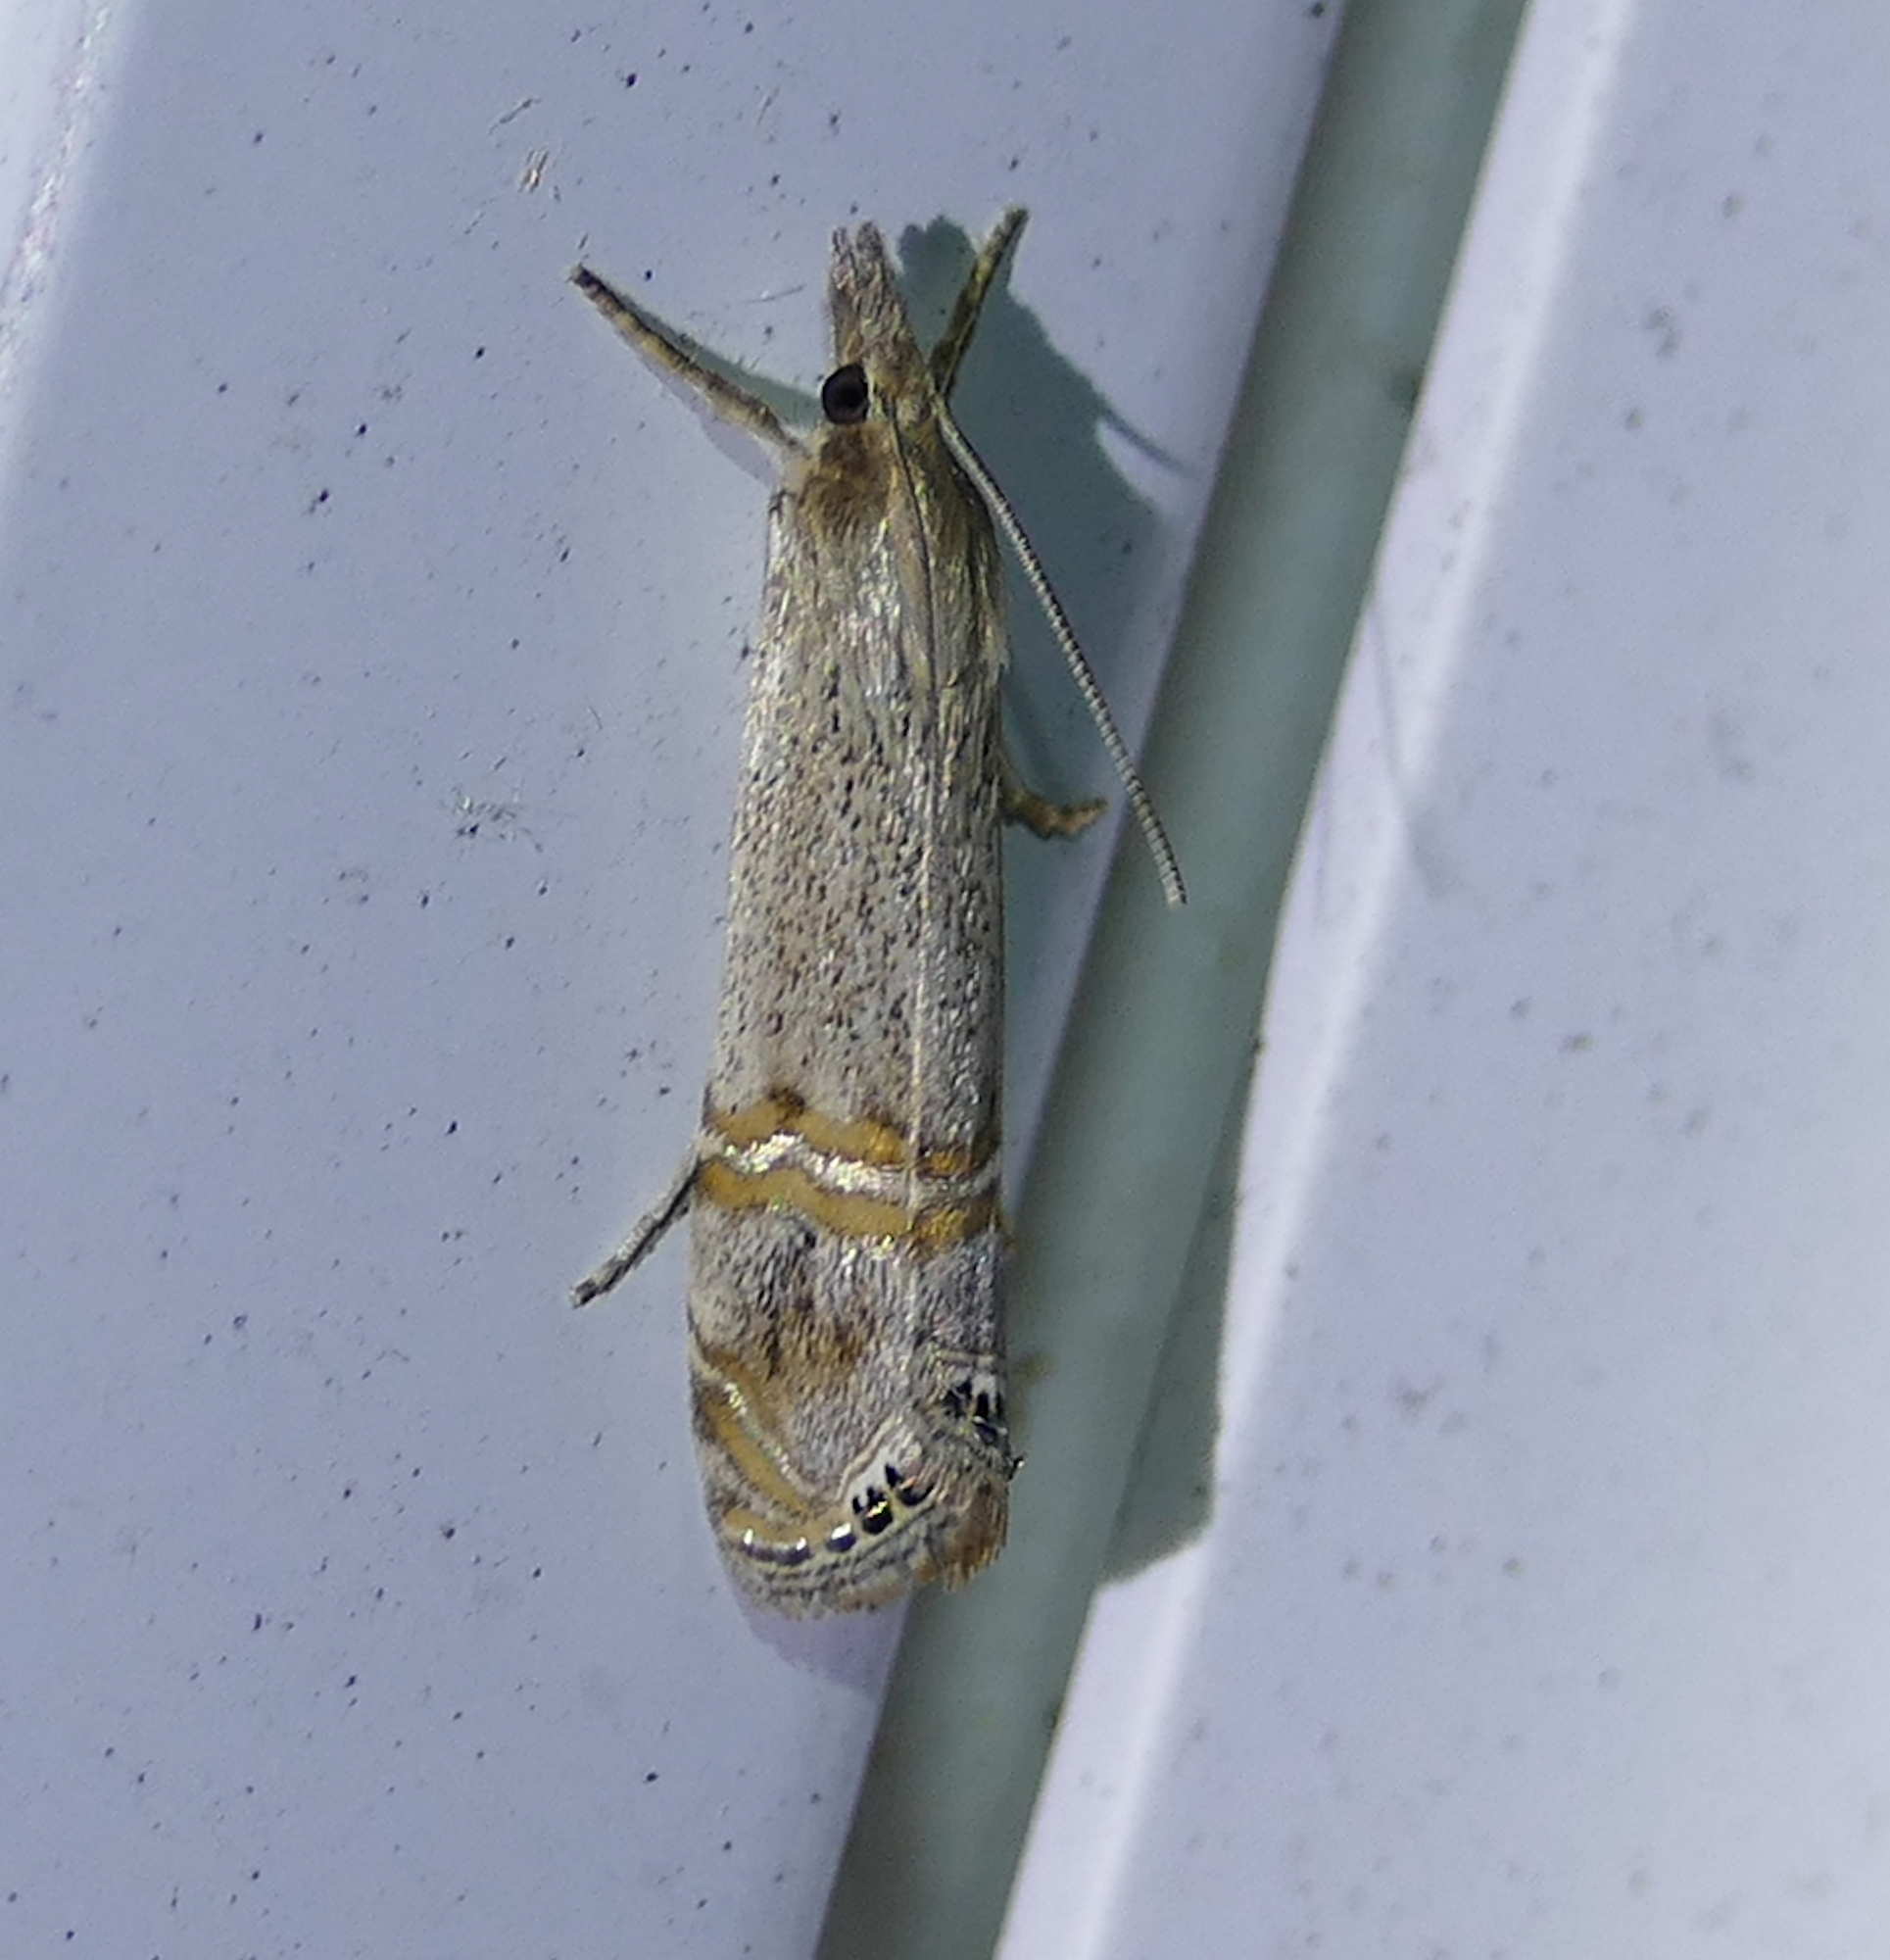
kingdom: Animalia
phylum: Arthropoda
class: Insecta
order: Lepidoptera
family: Crambidae
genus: Euchromius
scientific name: Euchromius ocellea
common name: Necklace veneer moth
